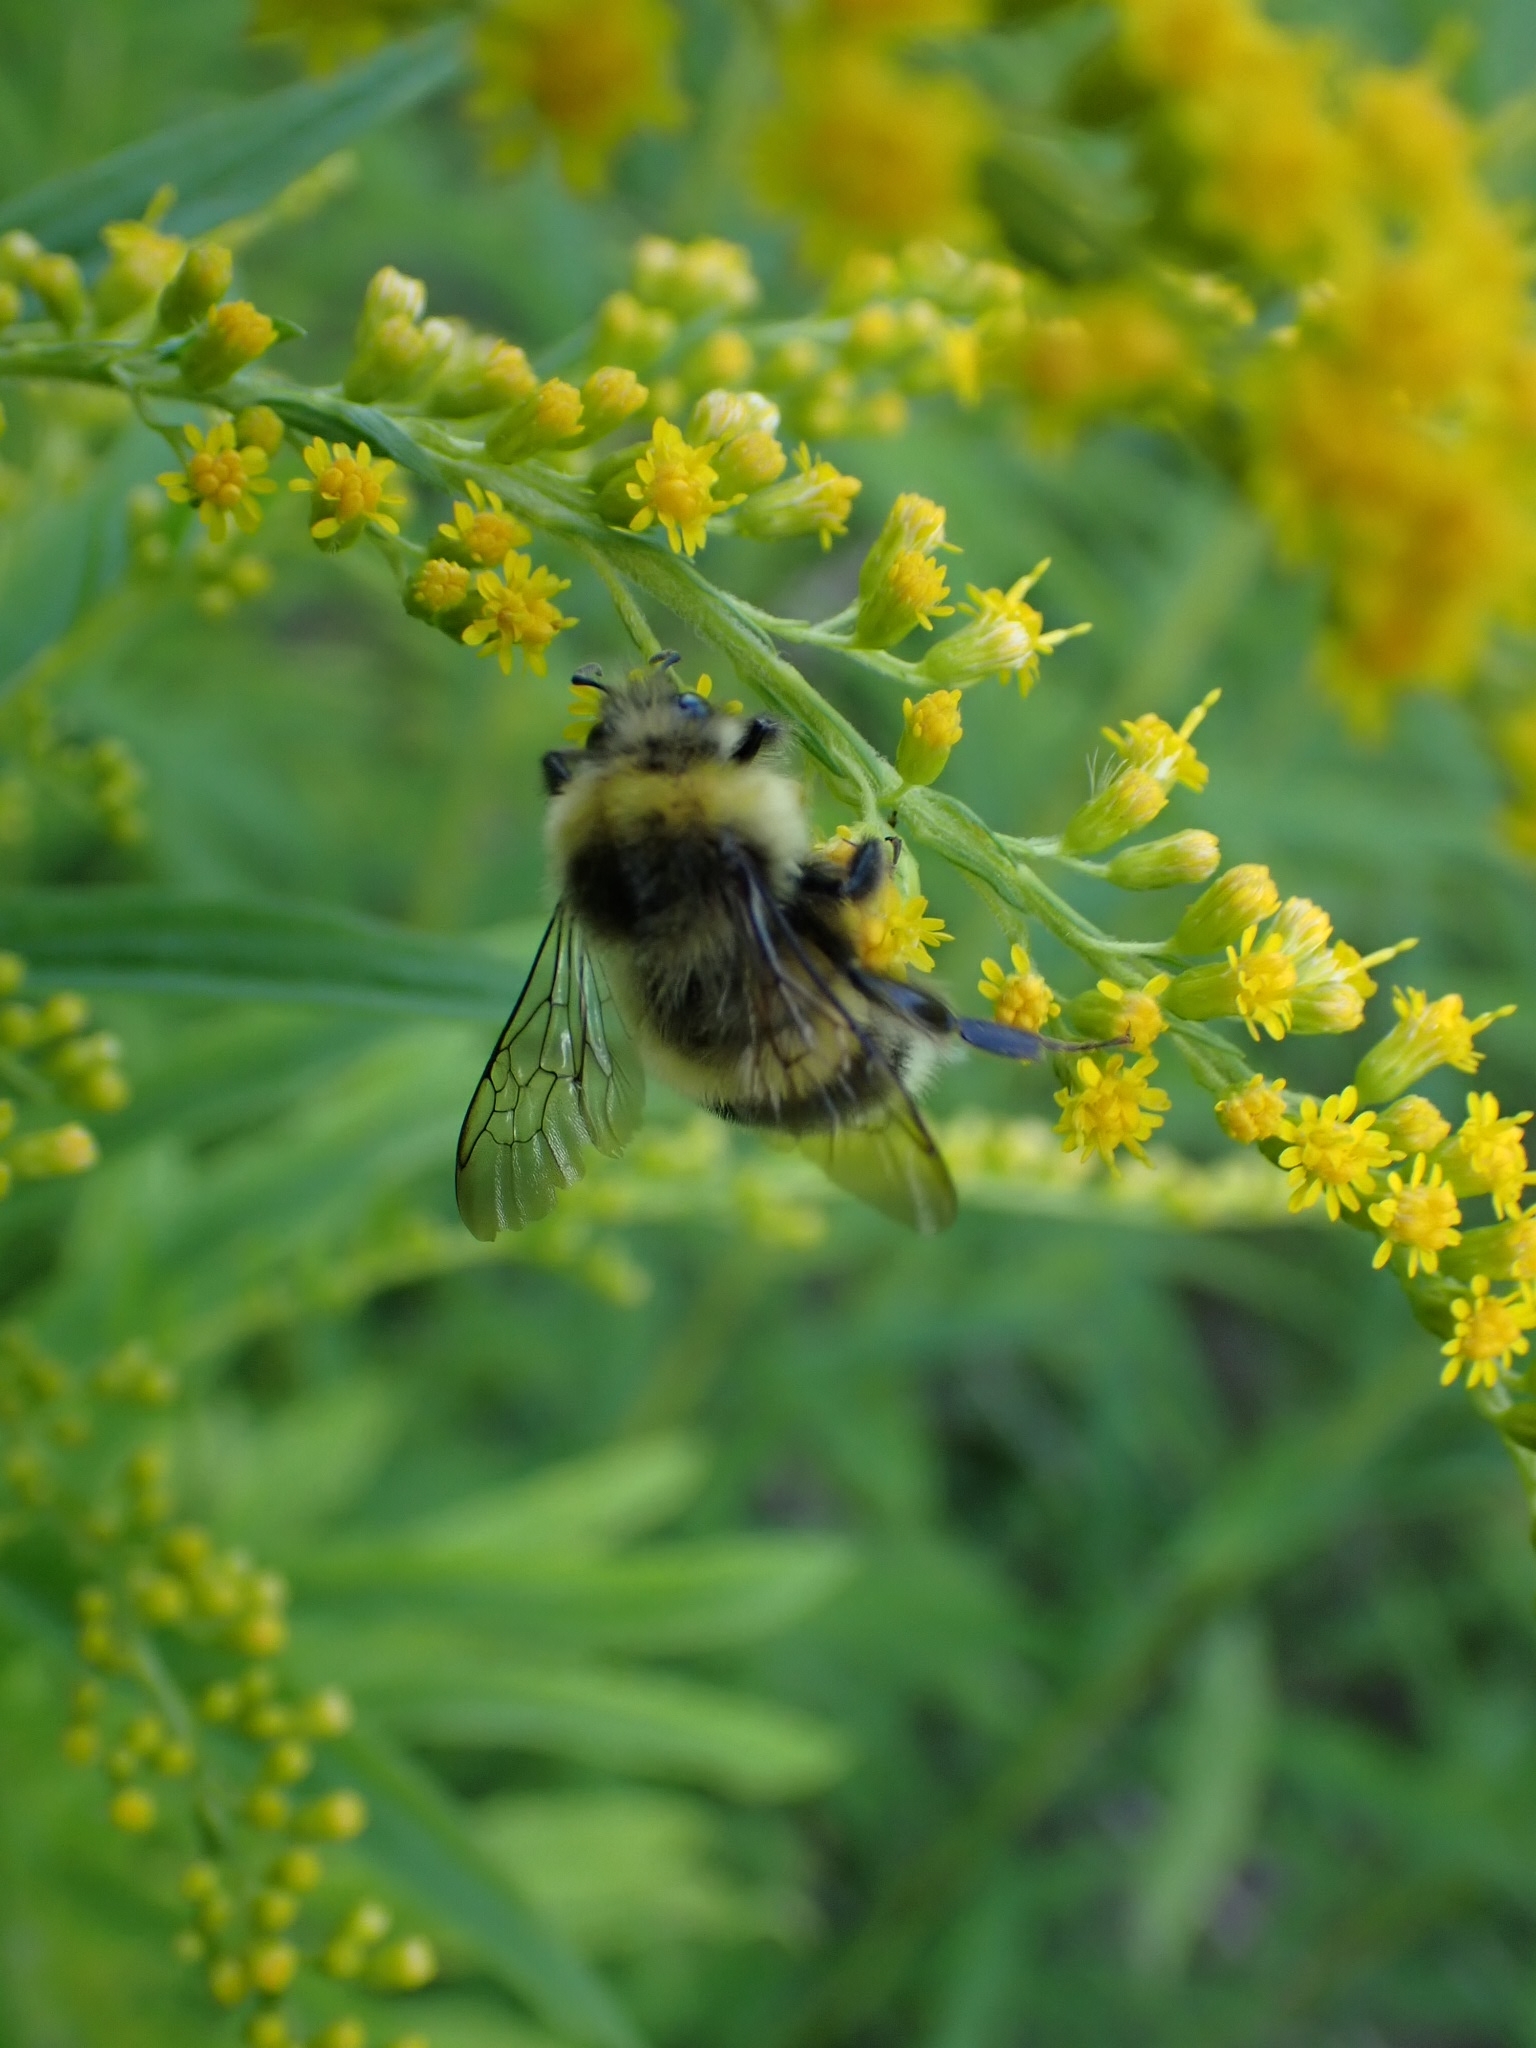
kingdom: Animalia
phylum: Arthropoda
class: Insecta
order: Hymenoptera
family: Apidae
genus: Bombus
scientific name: Bombus lucorum
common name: White-tailed bumblebee
